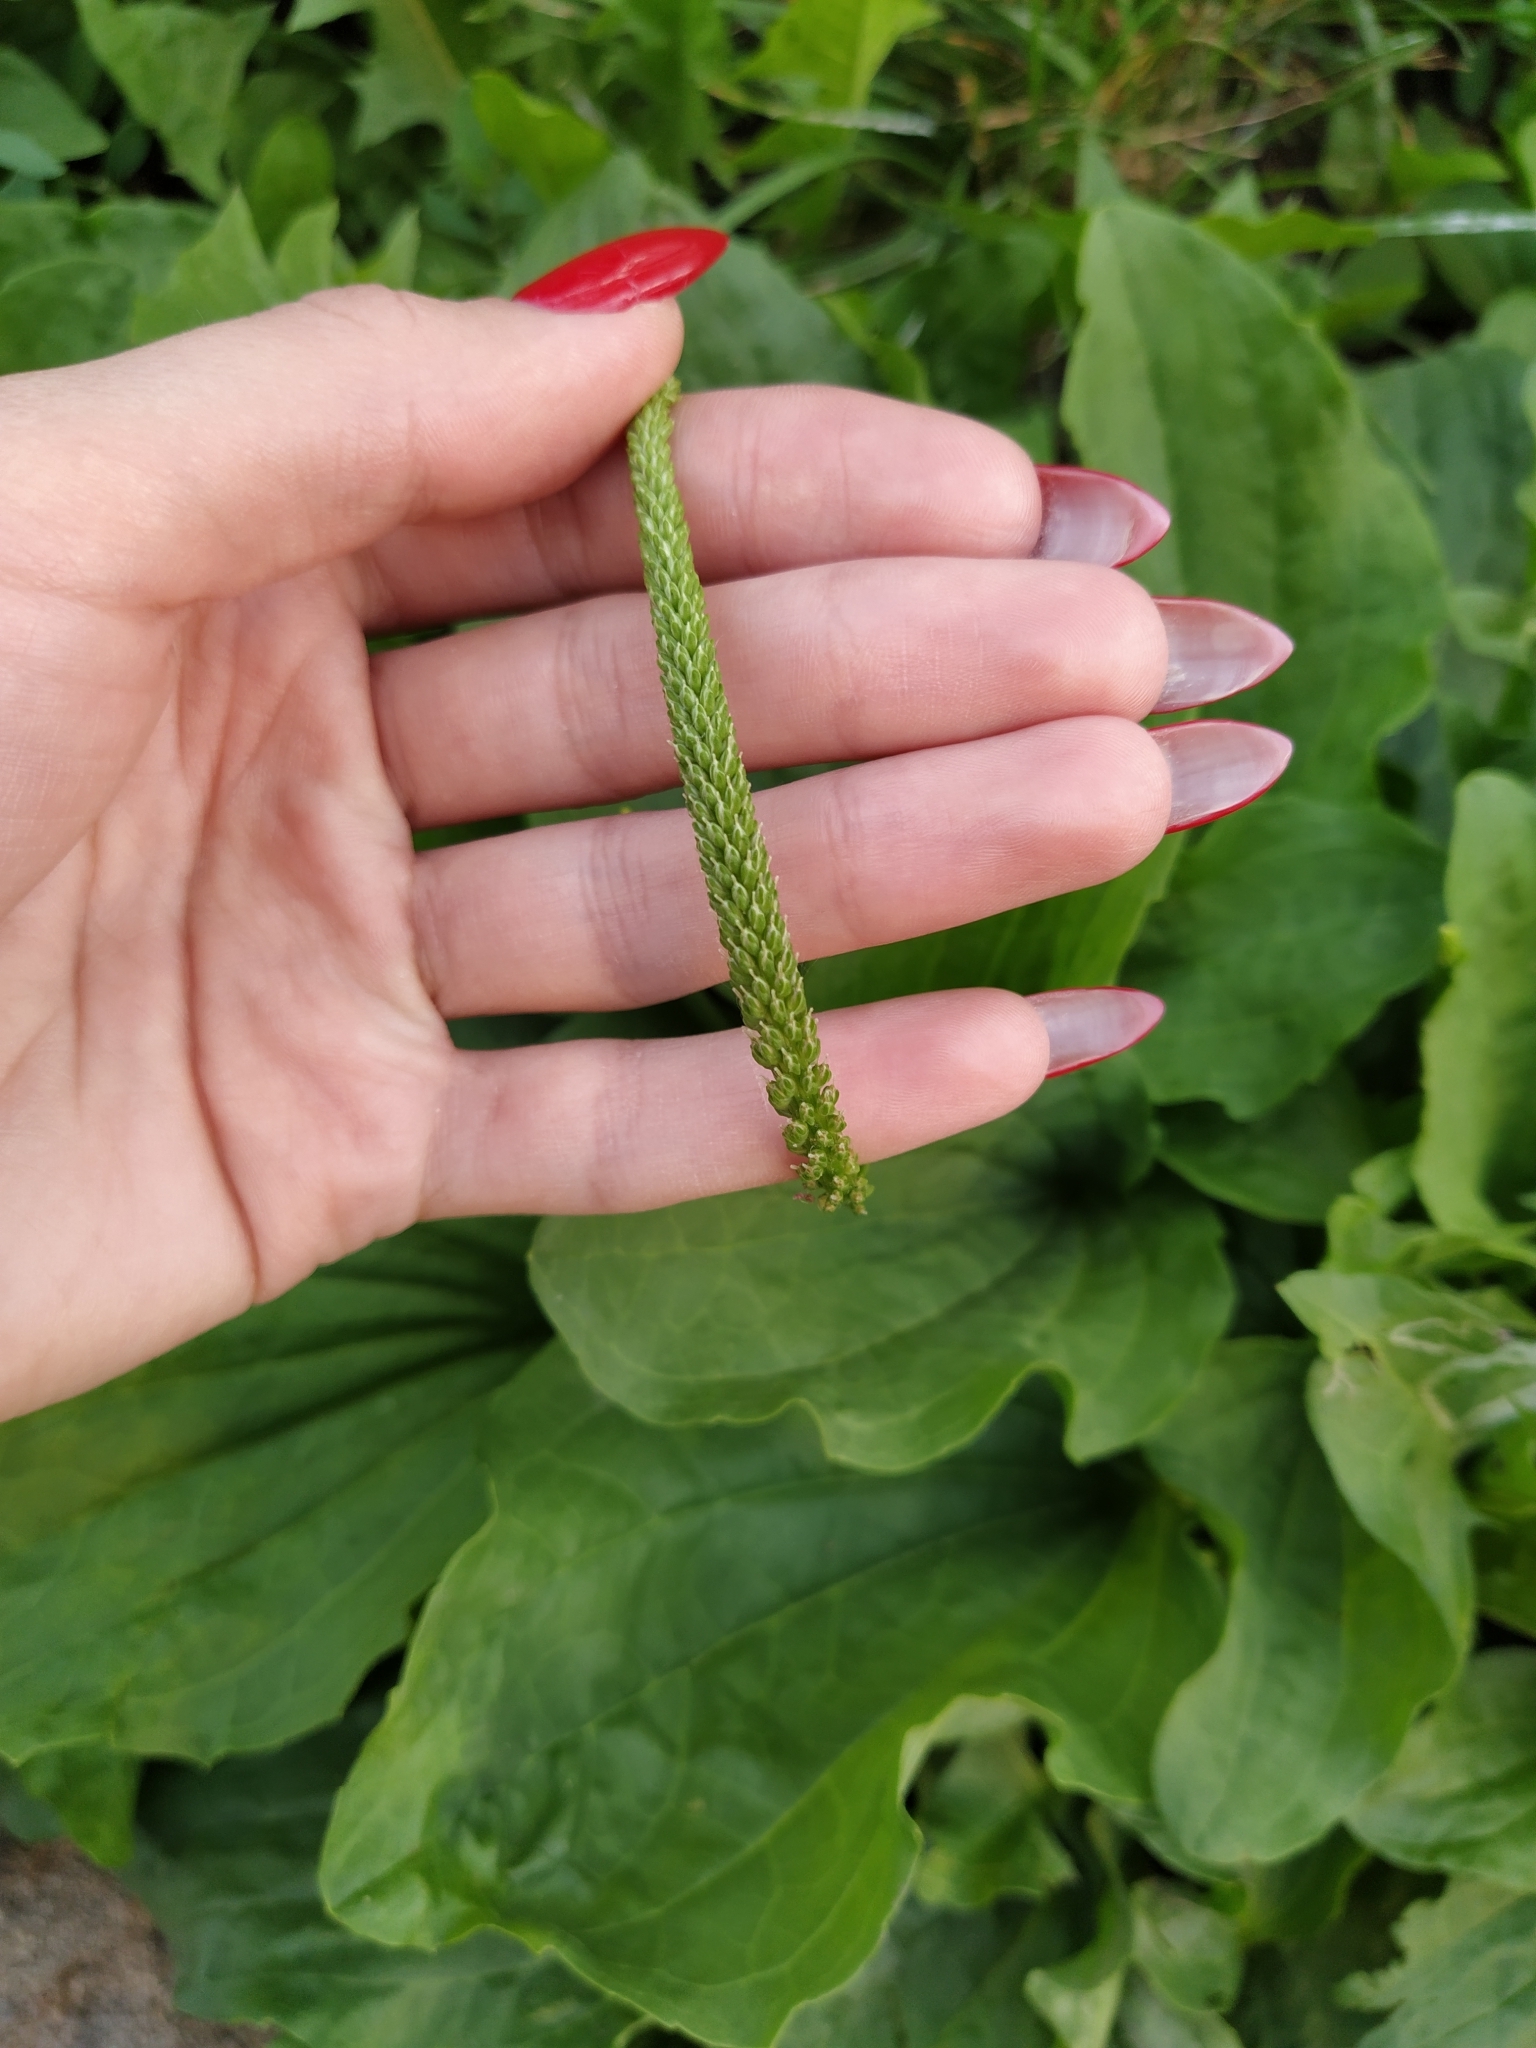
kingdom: Plantae
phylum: Tracheophyta
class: Magnoliopsida
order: Lamiales
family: Plantaginaceae
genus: Plantago
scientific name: Plantago major
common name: Common plantain
